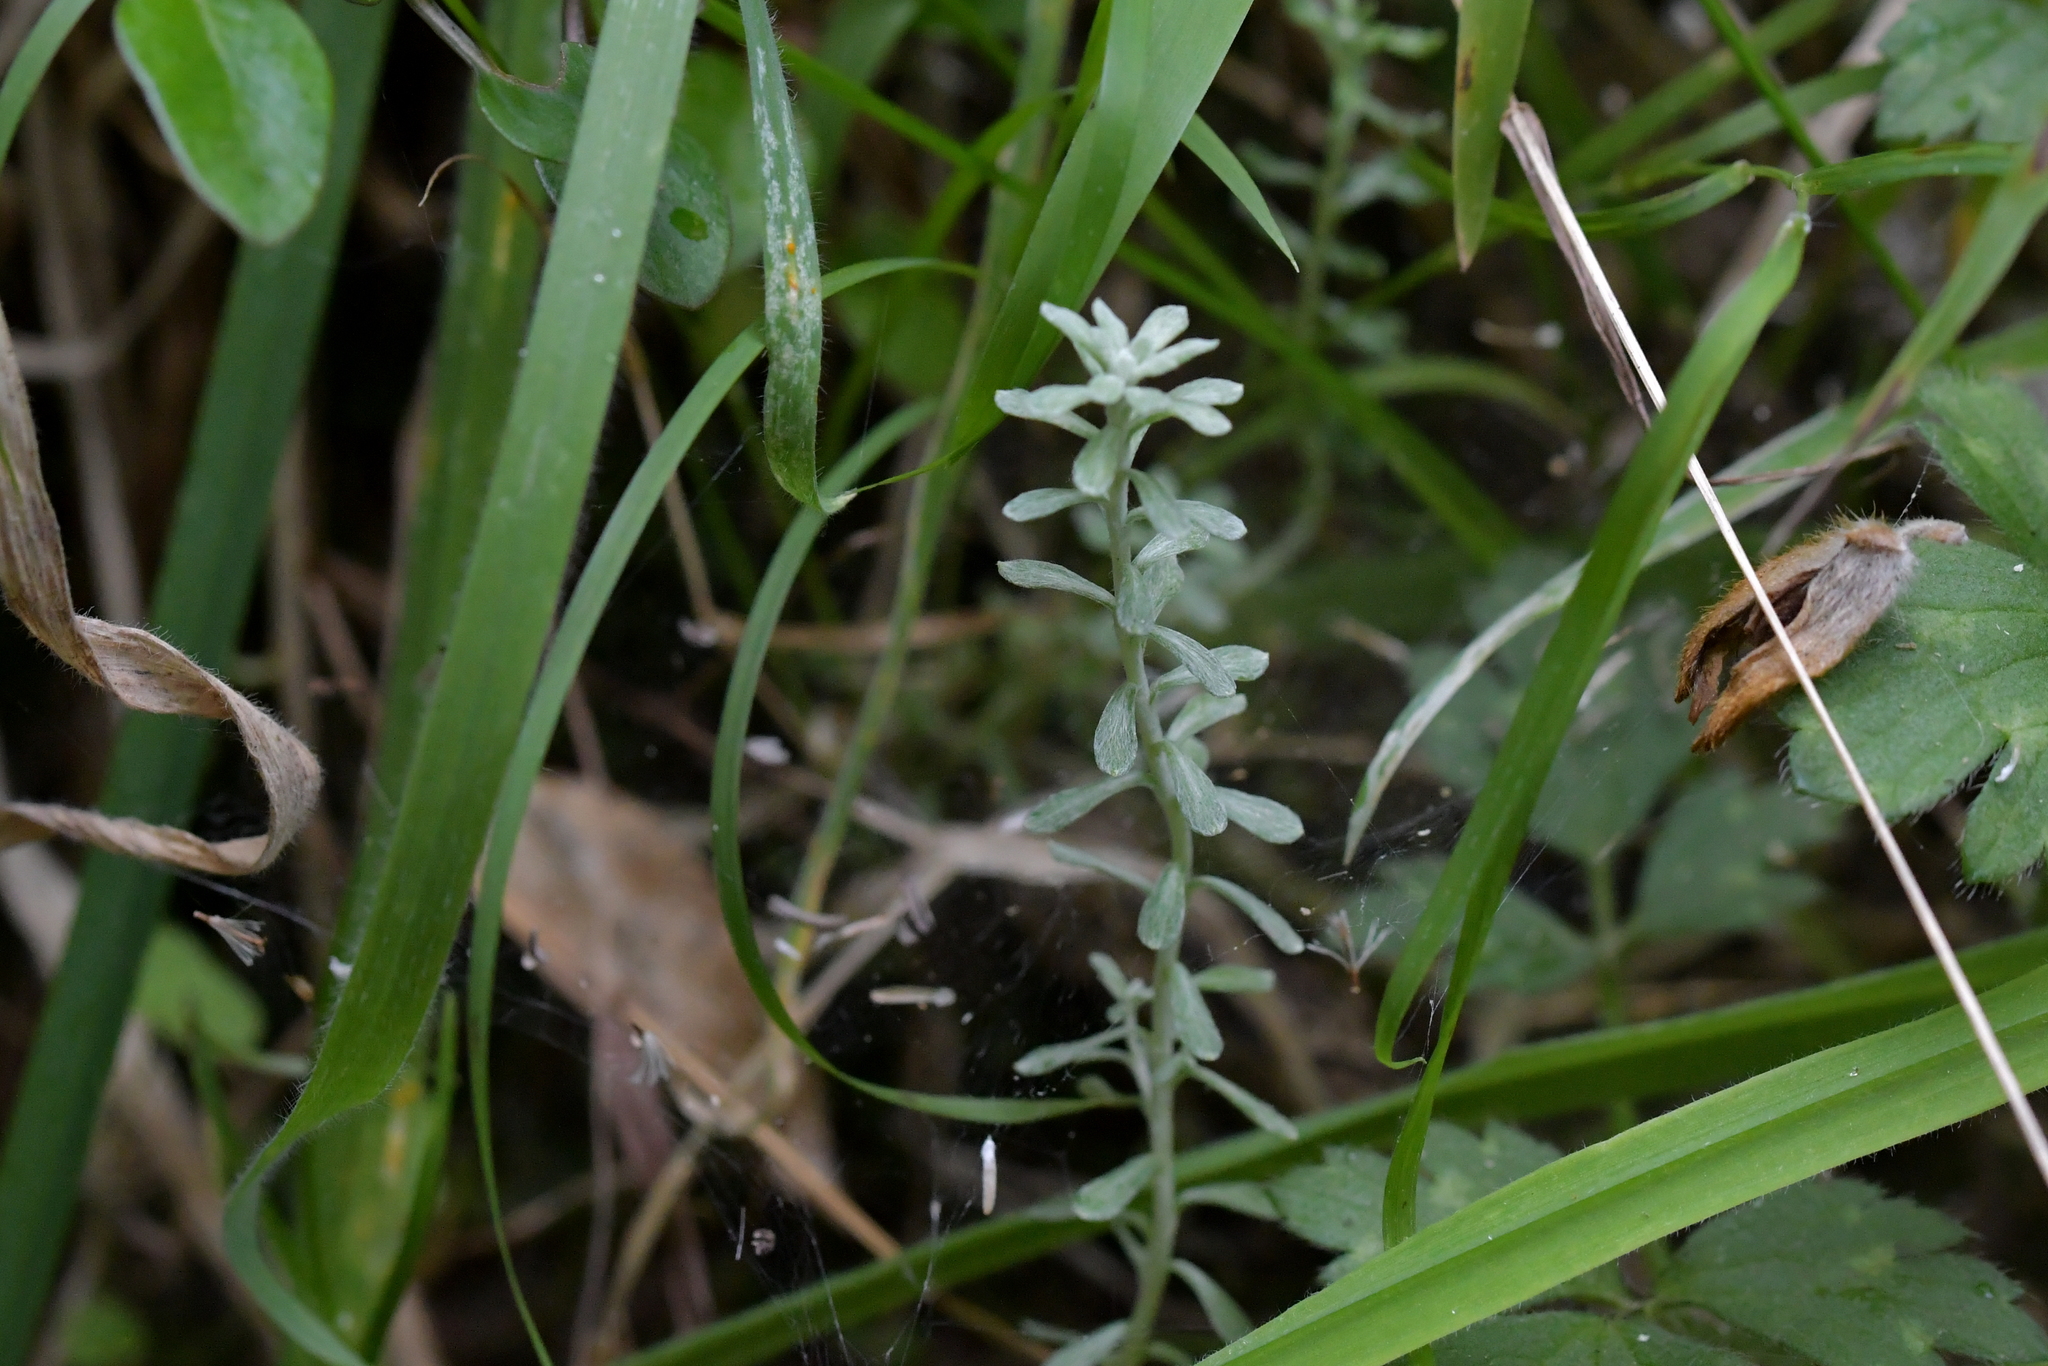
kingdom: Plantae
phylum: Tracheophyta
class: Magnoliopsida
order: Asterales
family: Asteraceae
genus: Helichrysum
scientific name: Helichrysum luteoalbum
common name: Daisy
